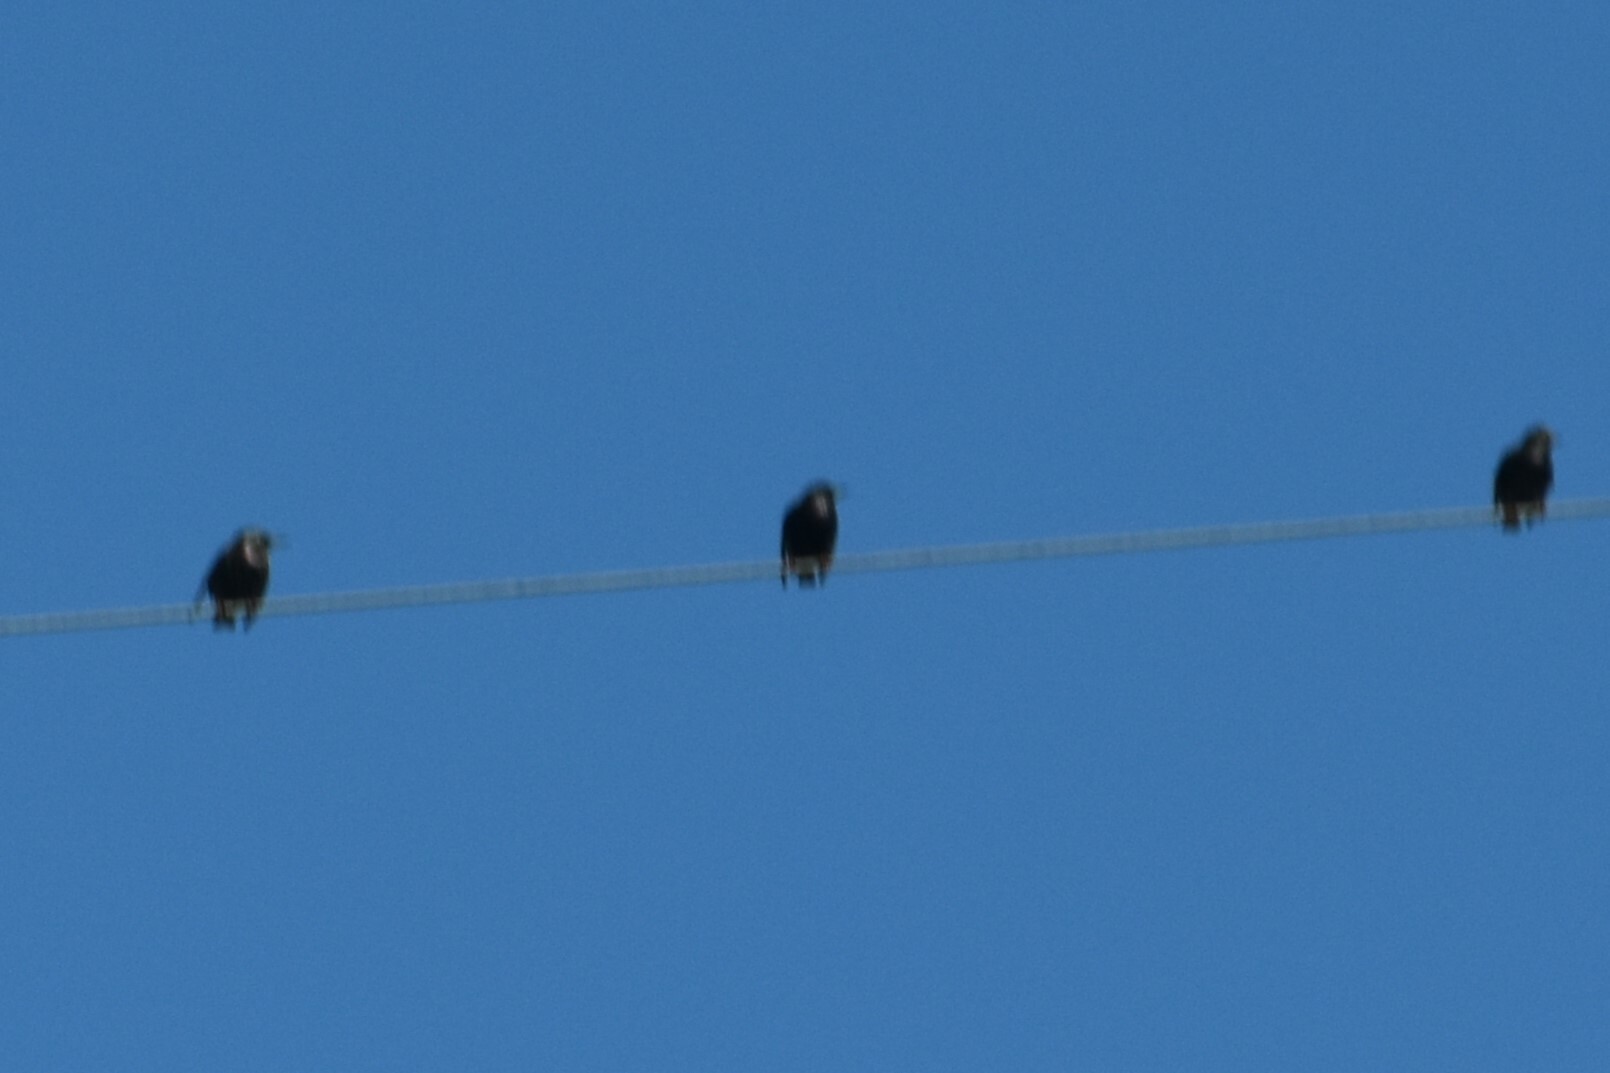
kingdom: Animalia
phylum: Chordata
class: Aves
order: Passeriformes
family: Sturnidae
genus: Sturnus
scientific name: Sturnus vulgaris
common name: Common starling
